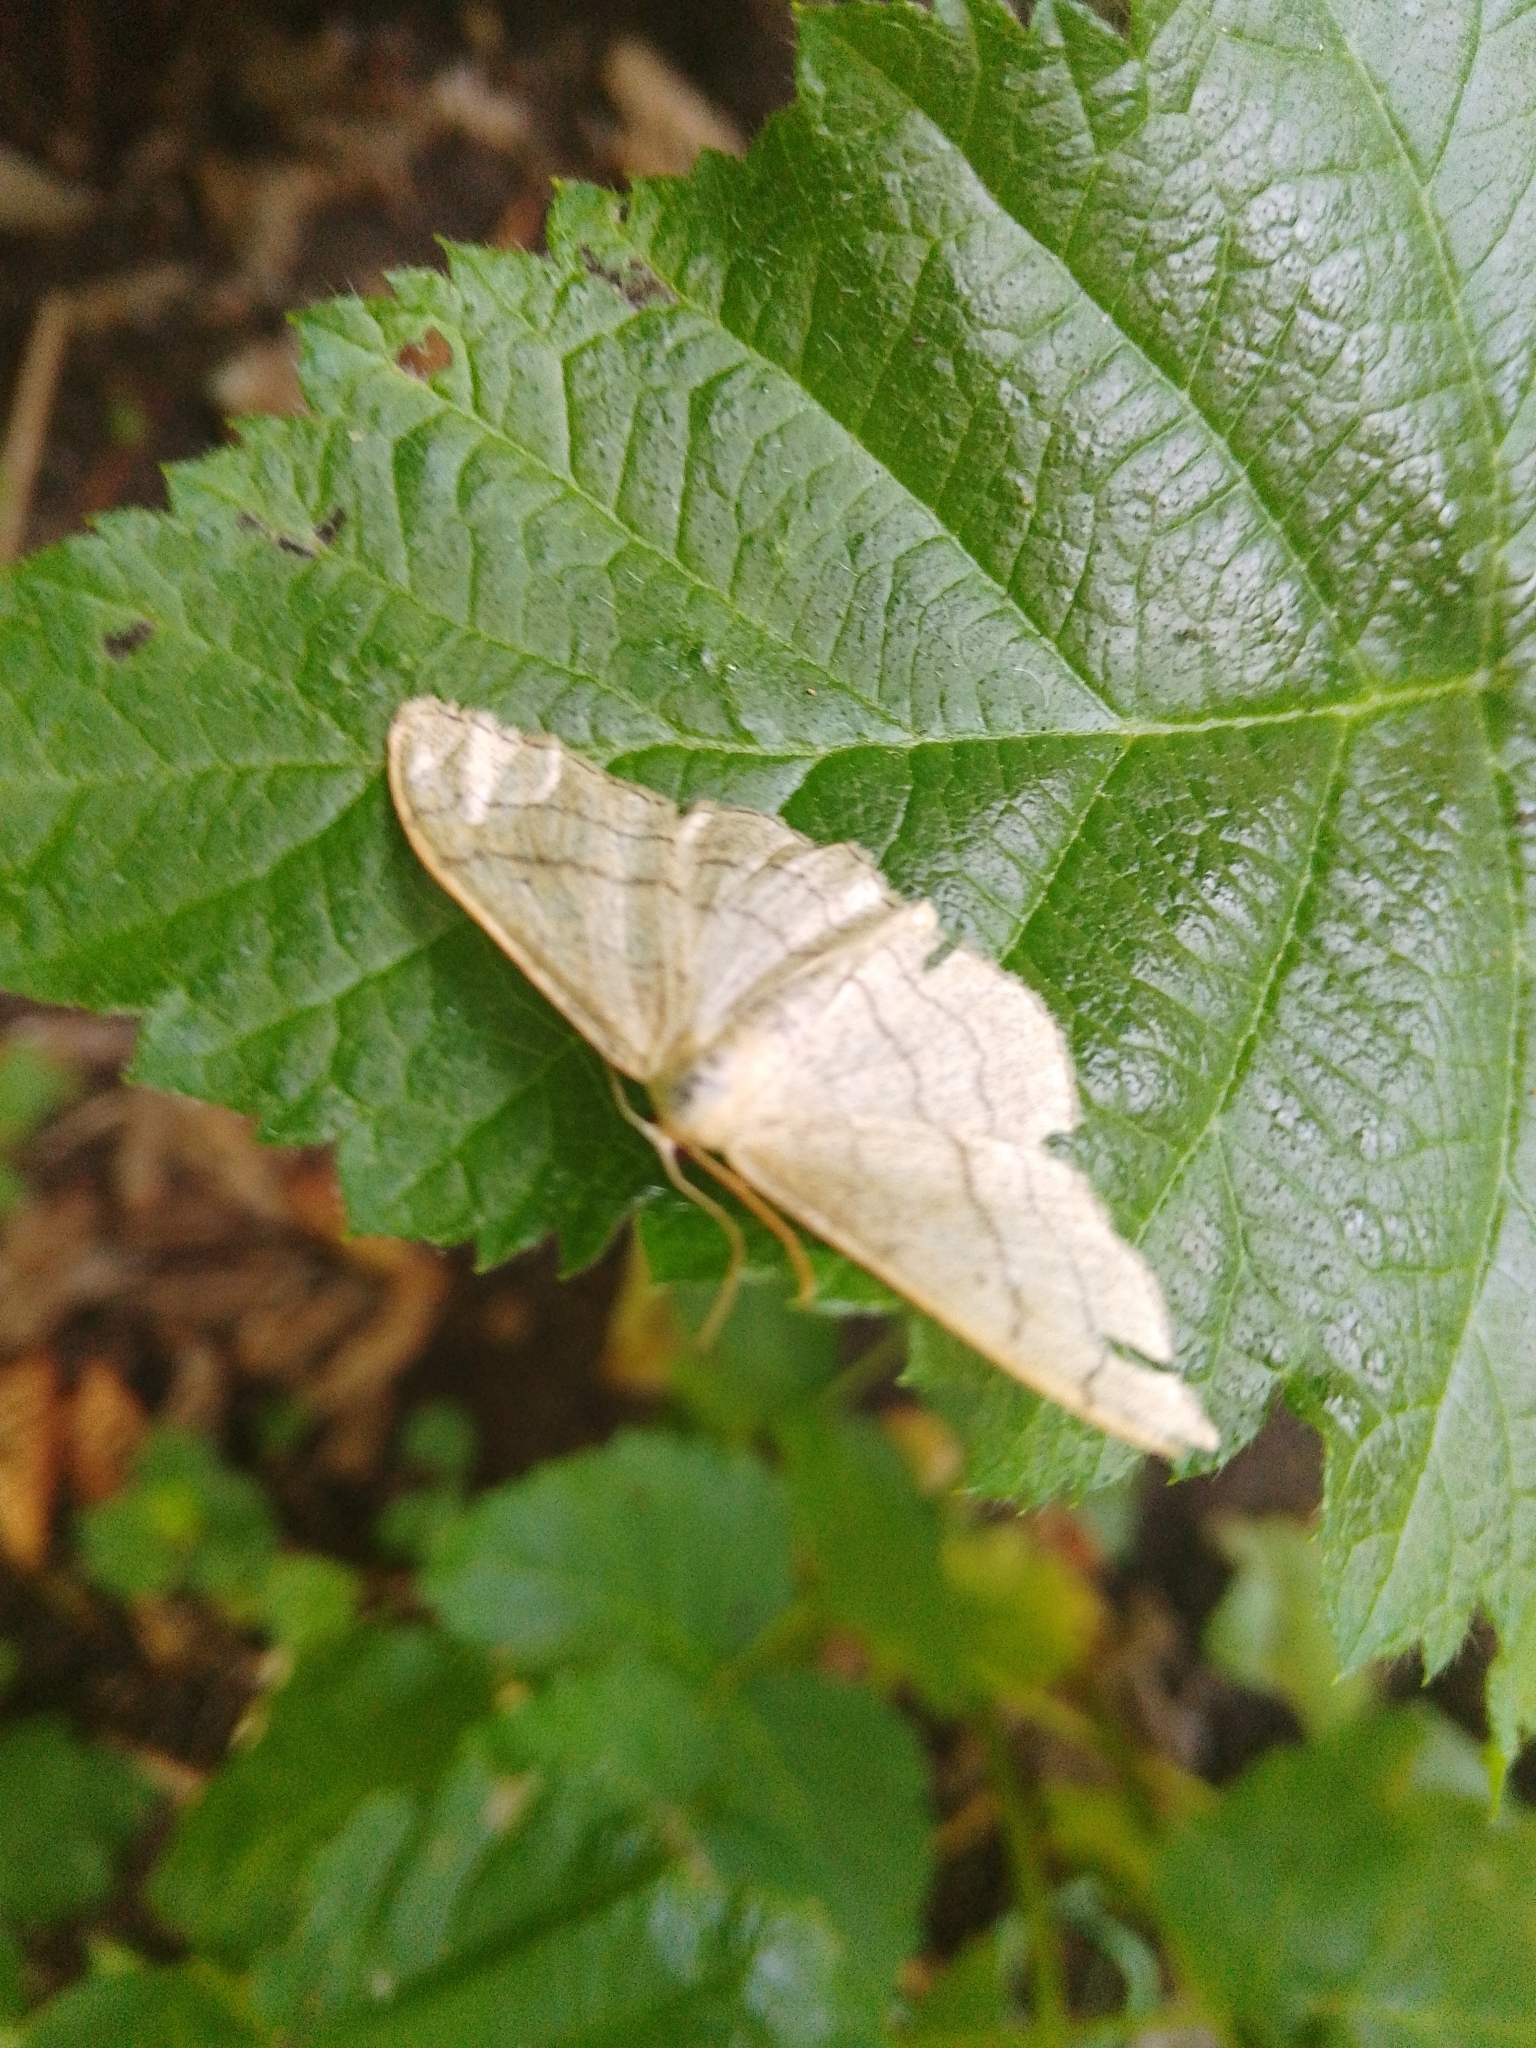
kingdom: Animalia
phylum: Arthropoda
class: Insecta
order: Lepidoptera
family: Geometridae
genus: Idaea
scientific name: Idaea aversata
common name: Riband wave
